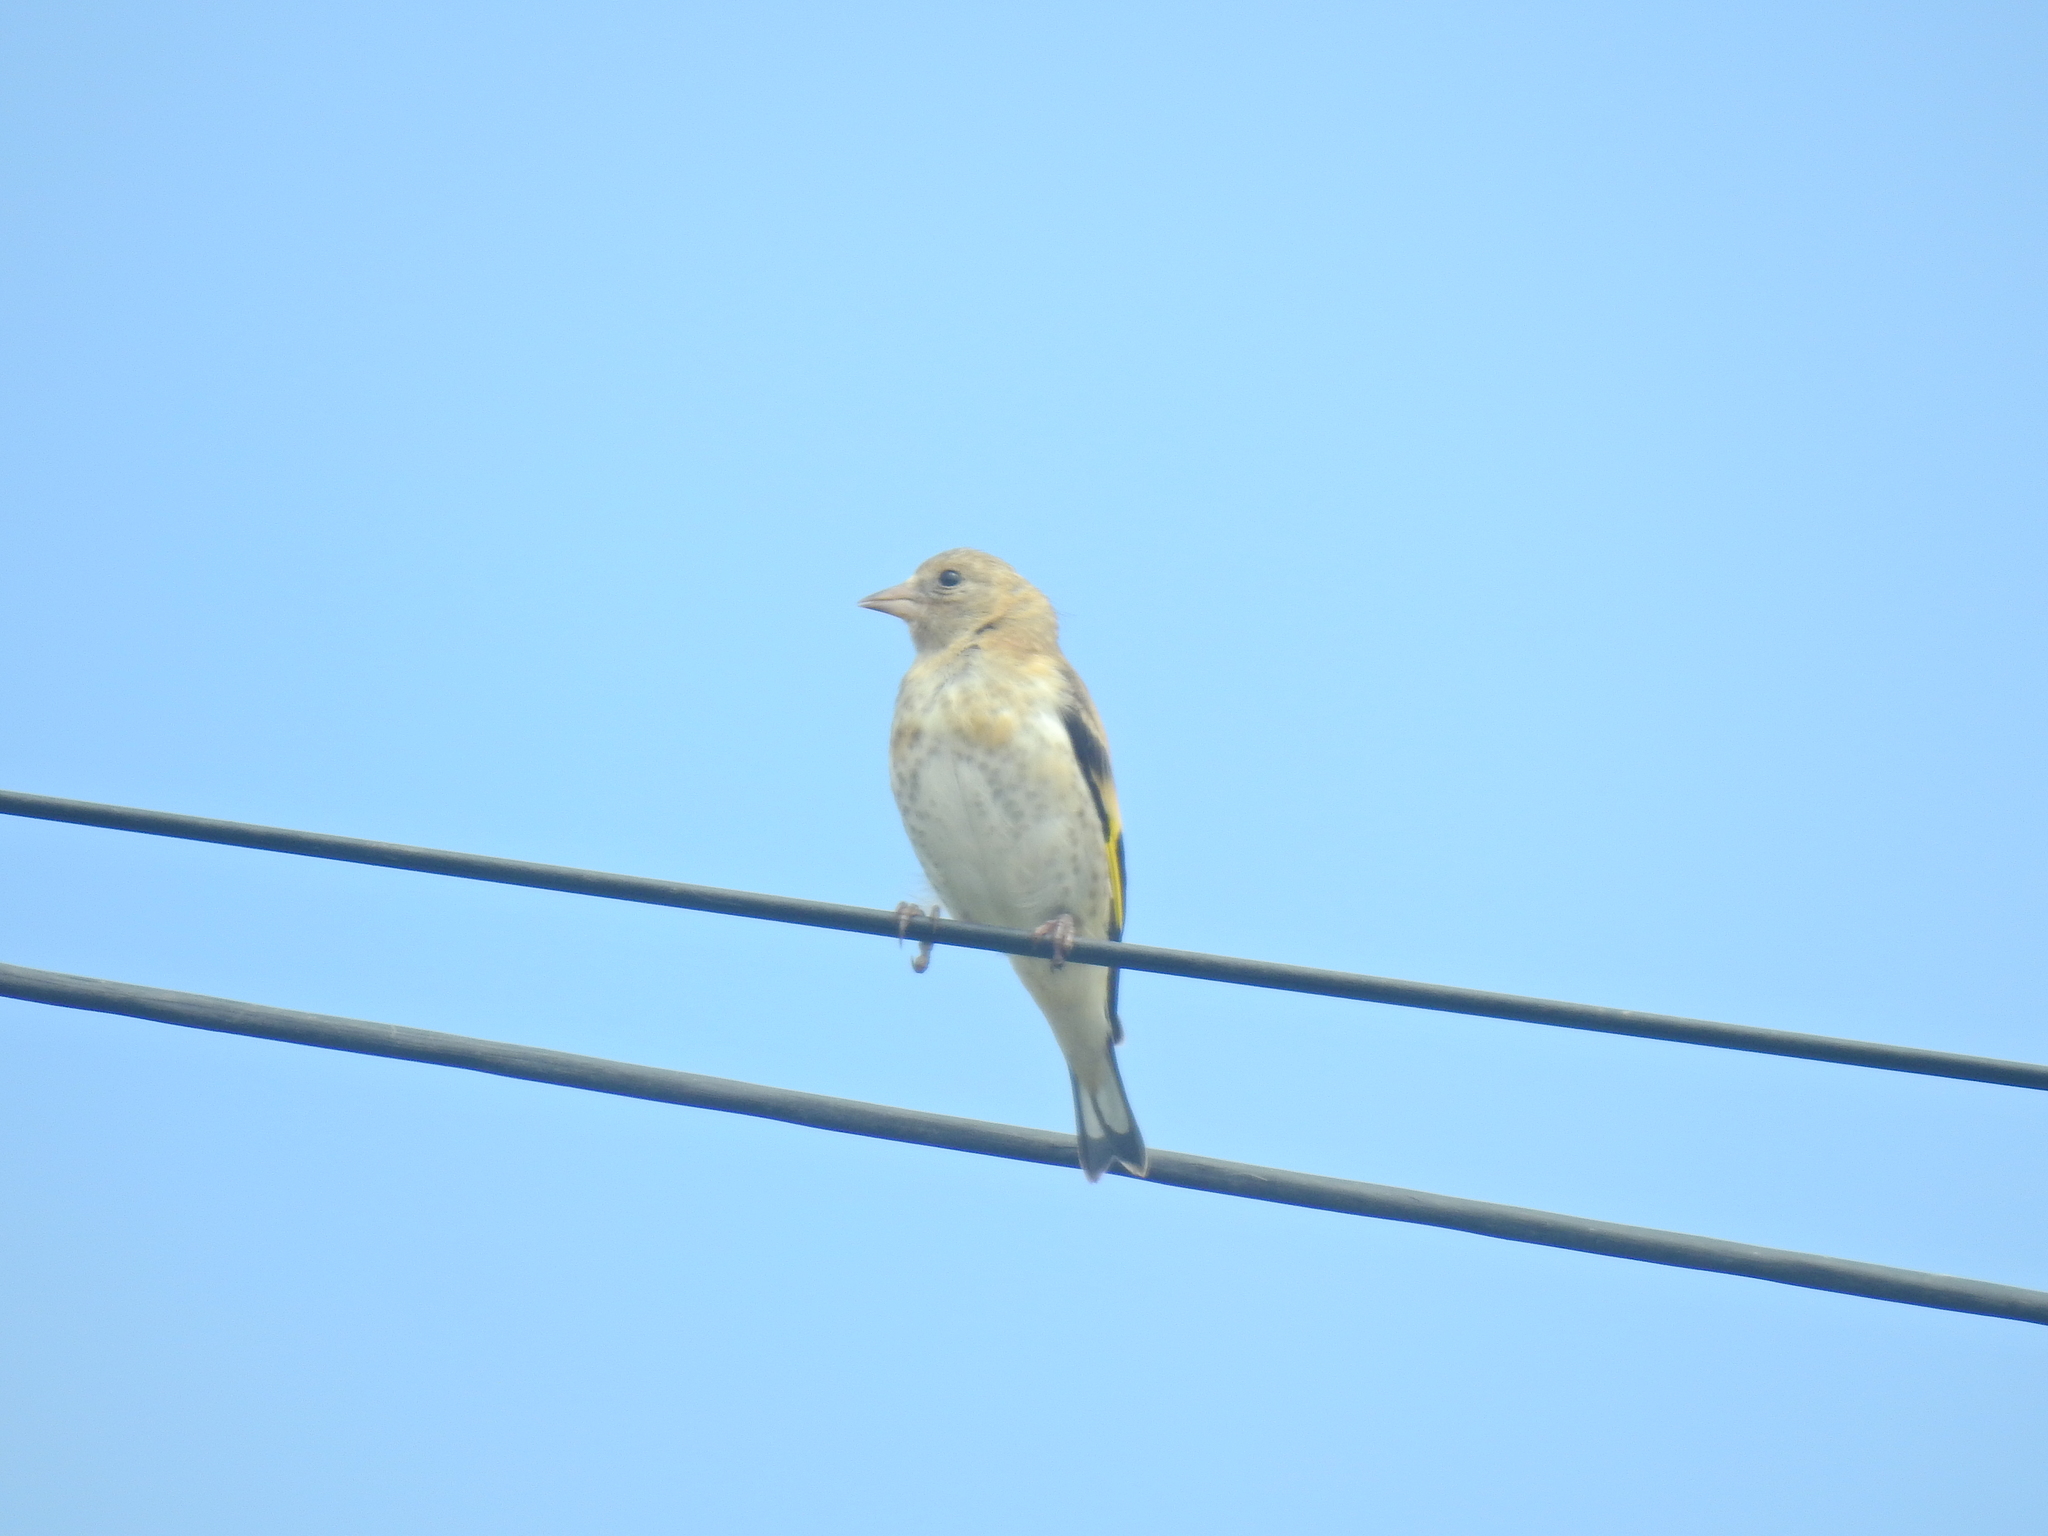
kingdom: Animalia
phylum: Chordata
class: Aves
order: Passeriformes
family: Fringillidae
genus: Carduelis
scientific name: Carduelis carduelis
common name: European goldfinch
